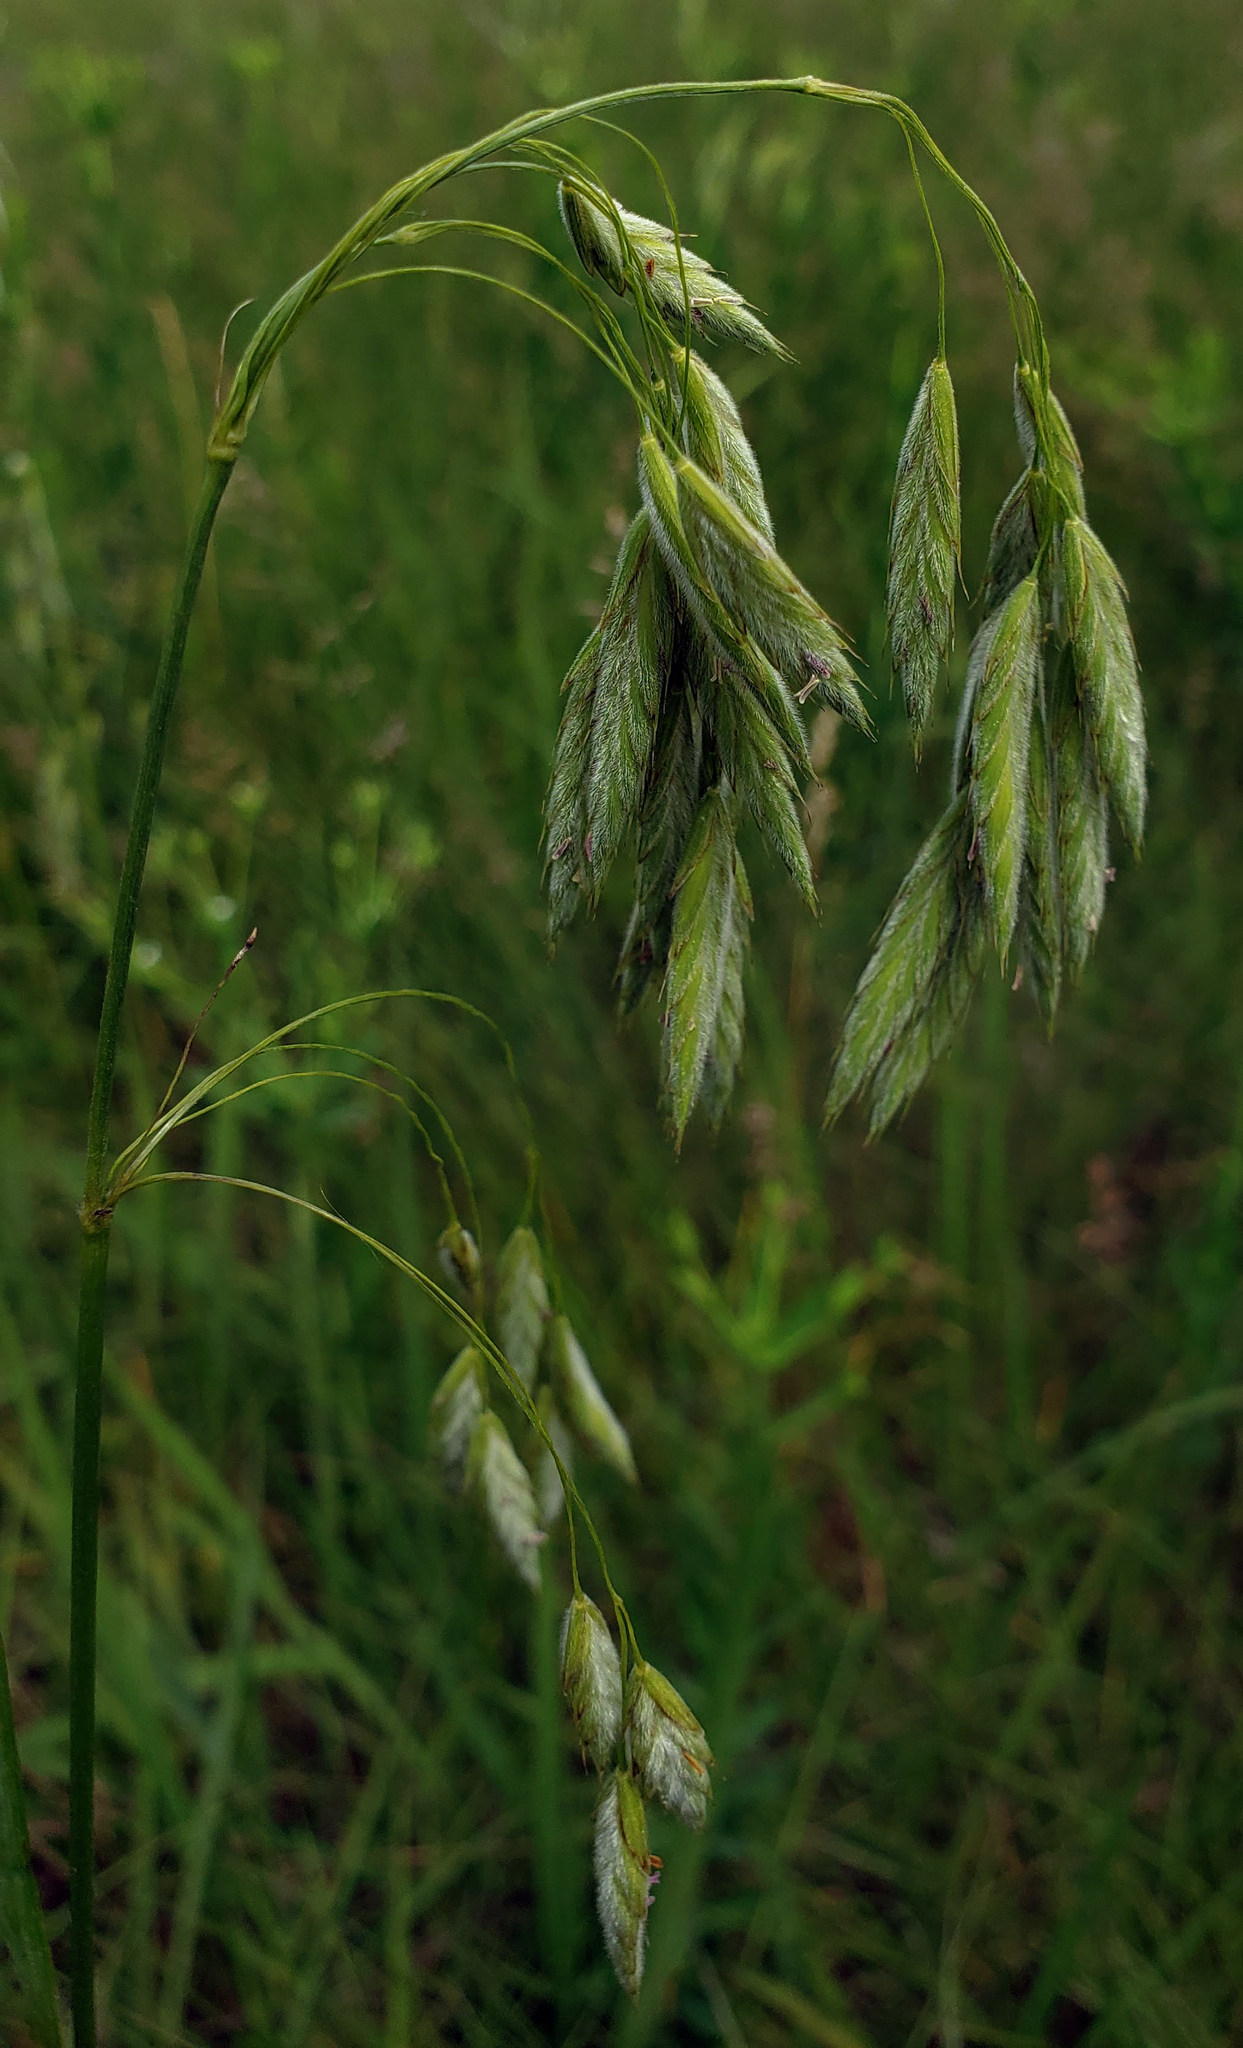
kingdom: Plantae
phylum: Tracheophyta
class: Liliopsida
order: Poales
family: Poaceae
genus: Bromus
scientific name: Bromus kalmii
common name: Kalm brome
